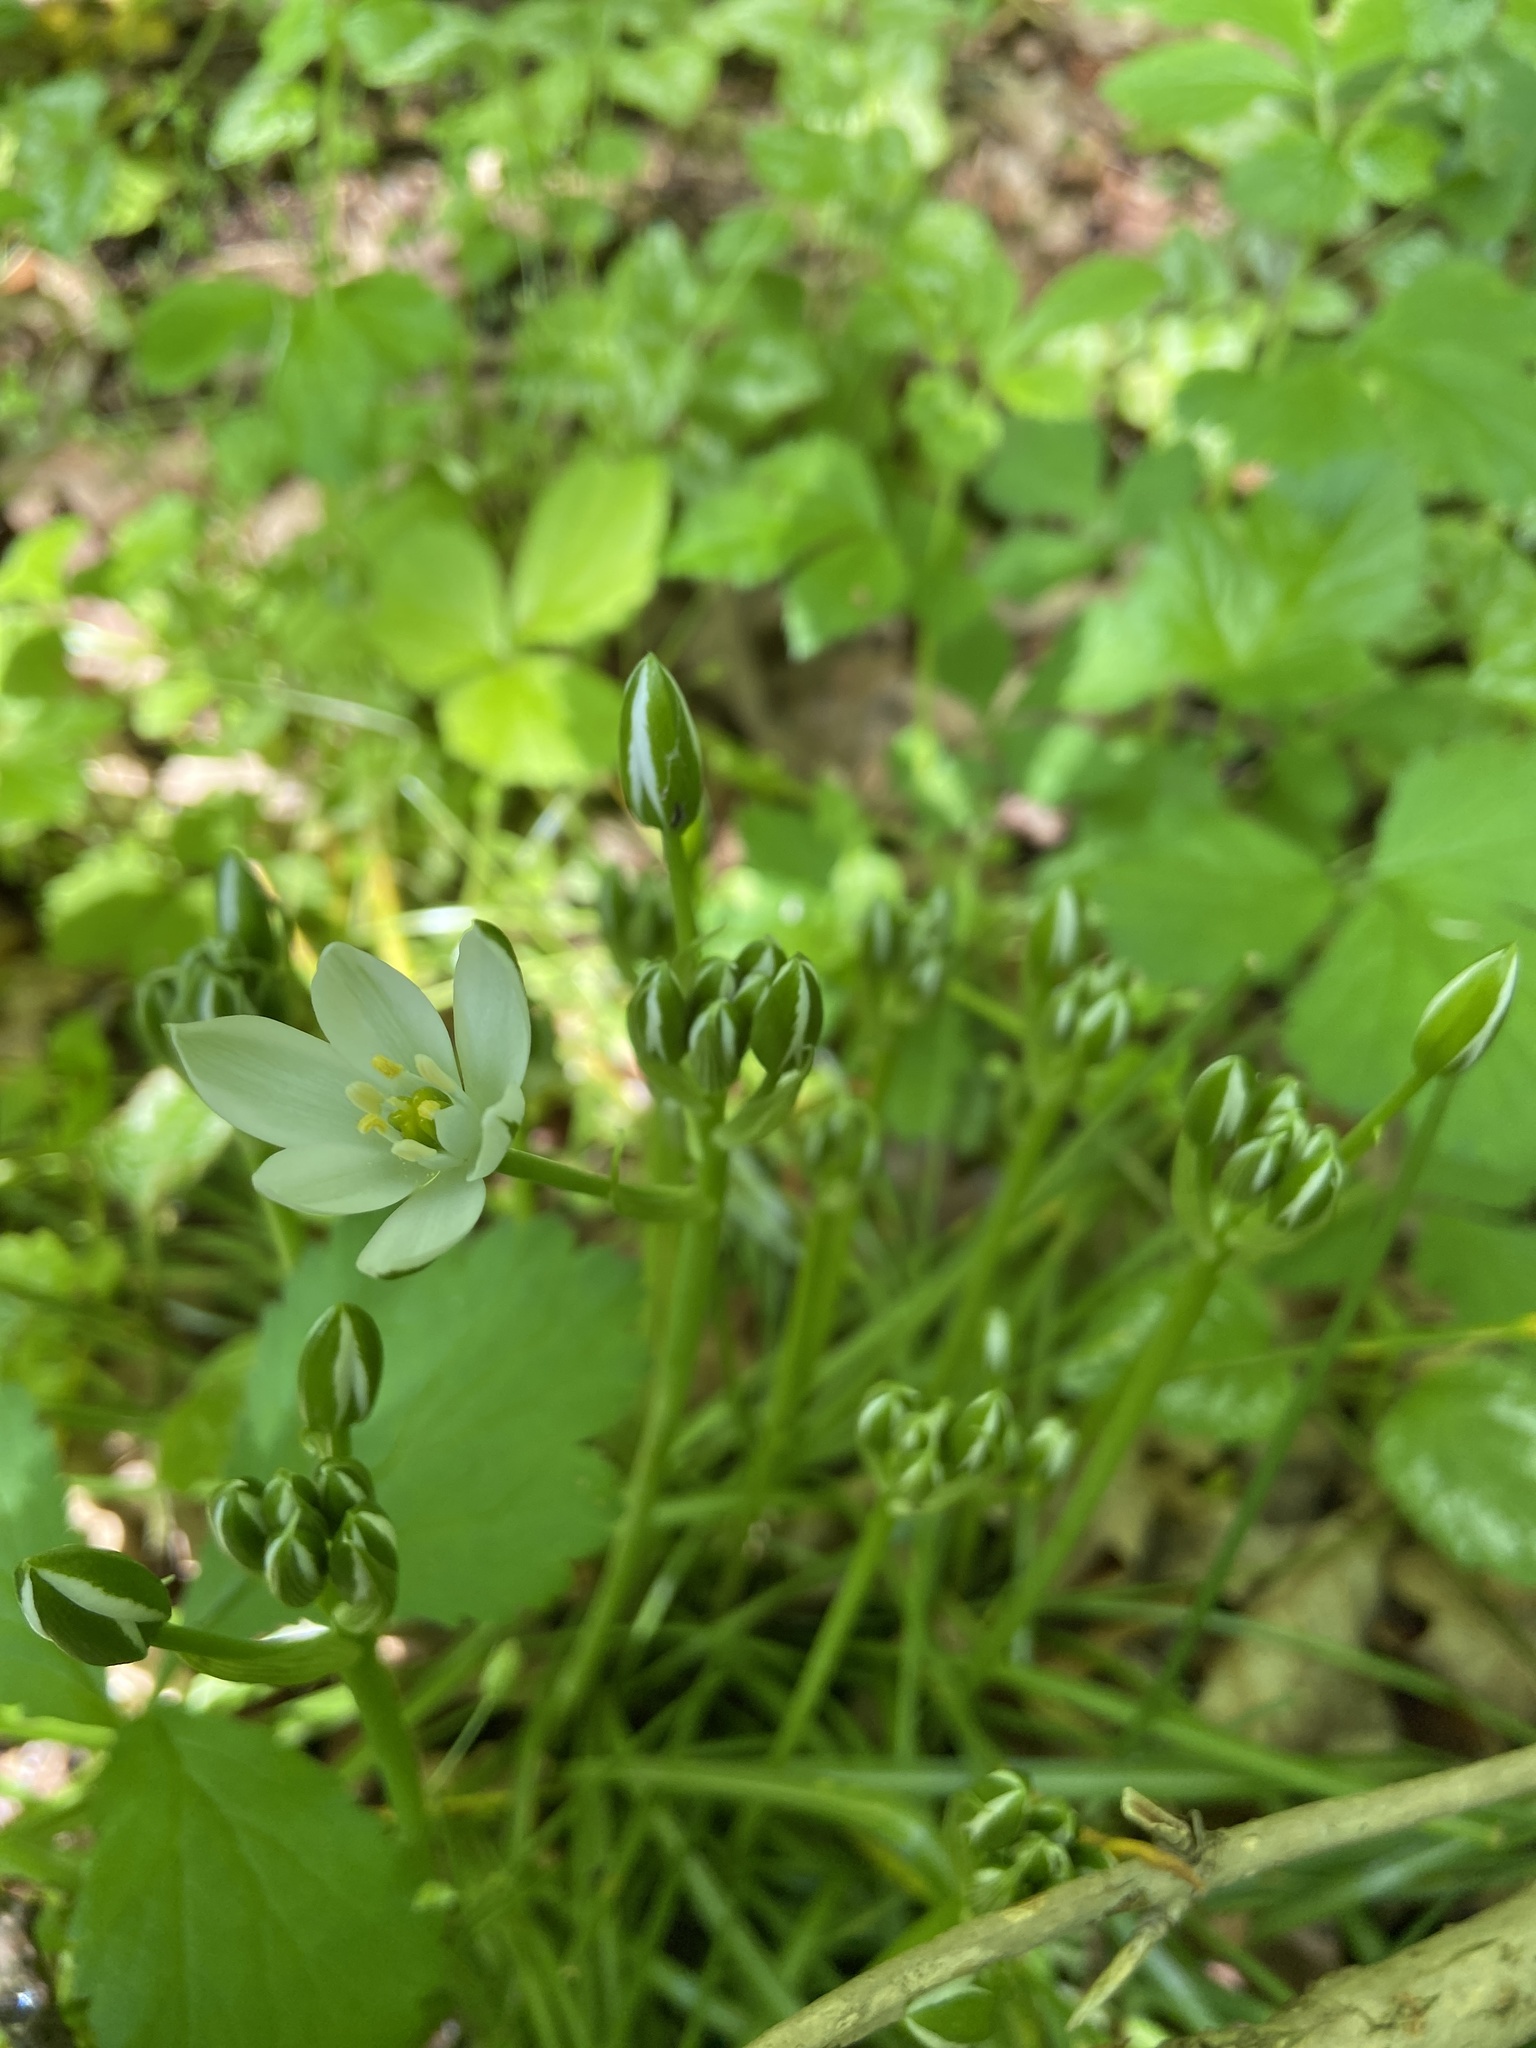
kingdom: Plantae
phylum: Tracheophyta
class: Liliopsida
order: Asparagales
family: Asparagaceae
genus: Ornithogalum
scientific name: Ornithogalum umbellatum
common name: Garden star-of-bethlehem
